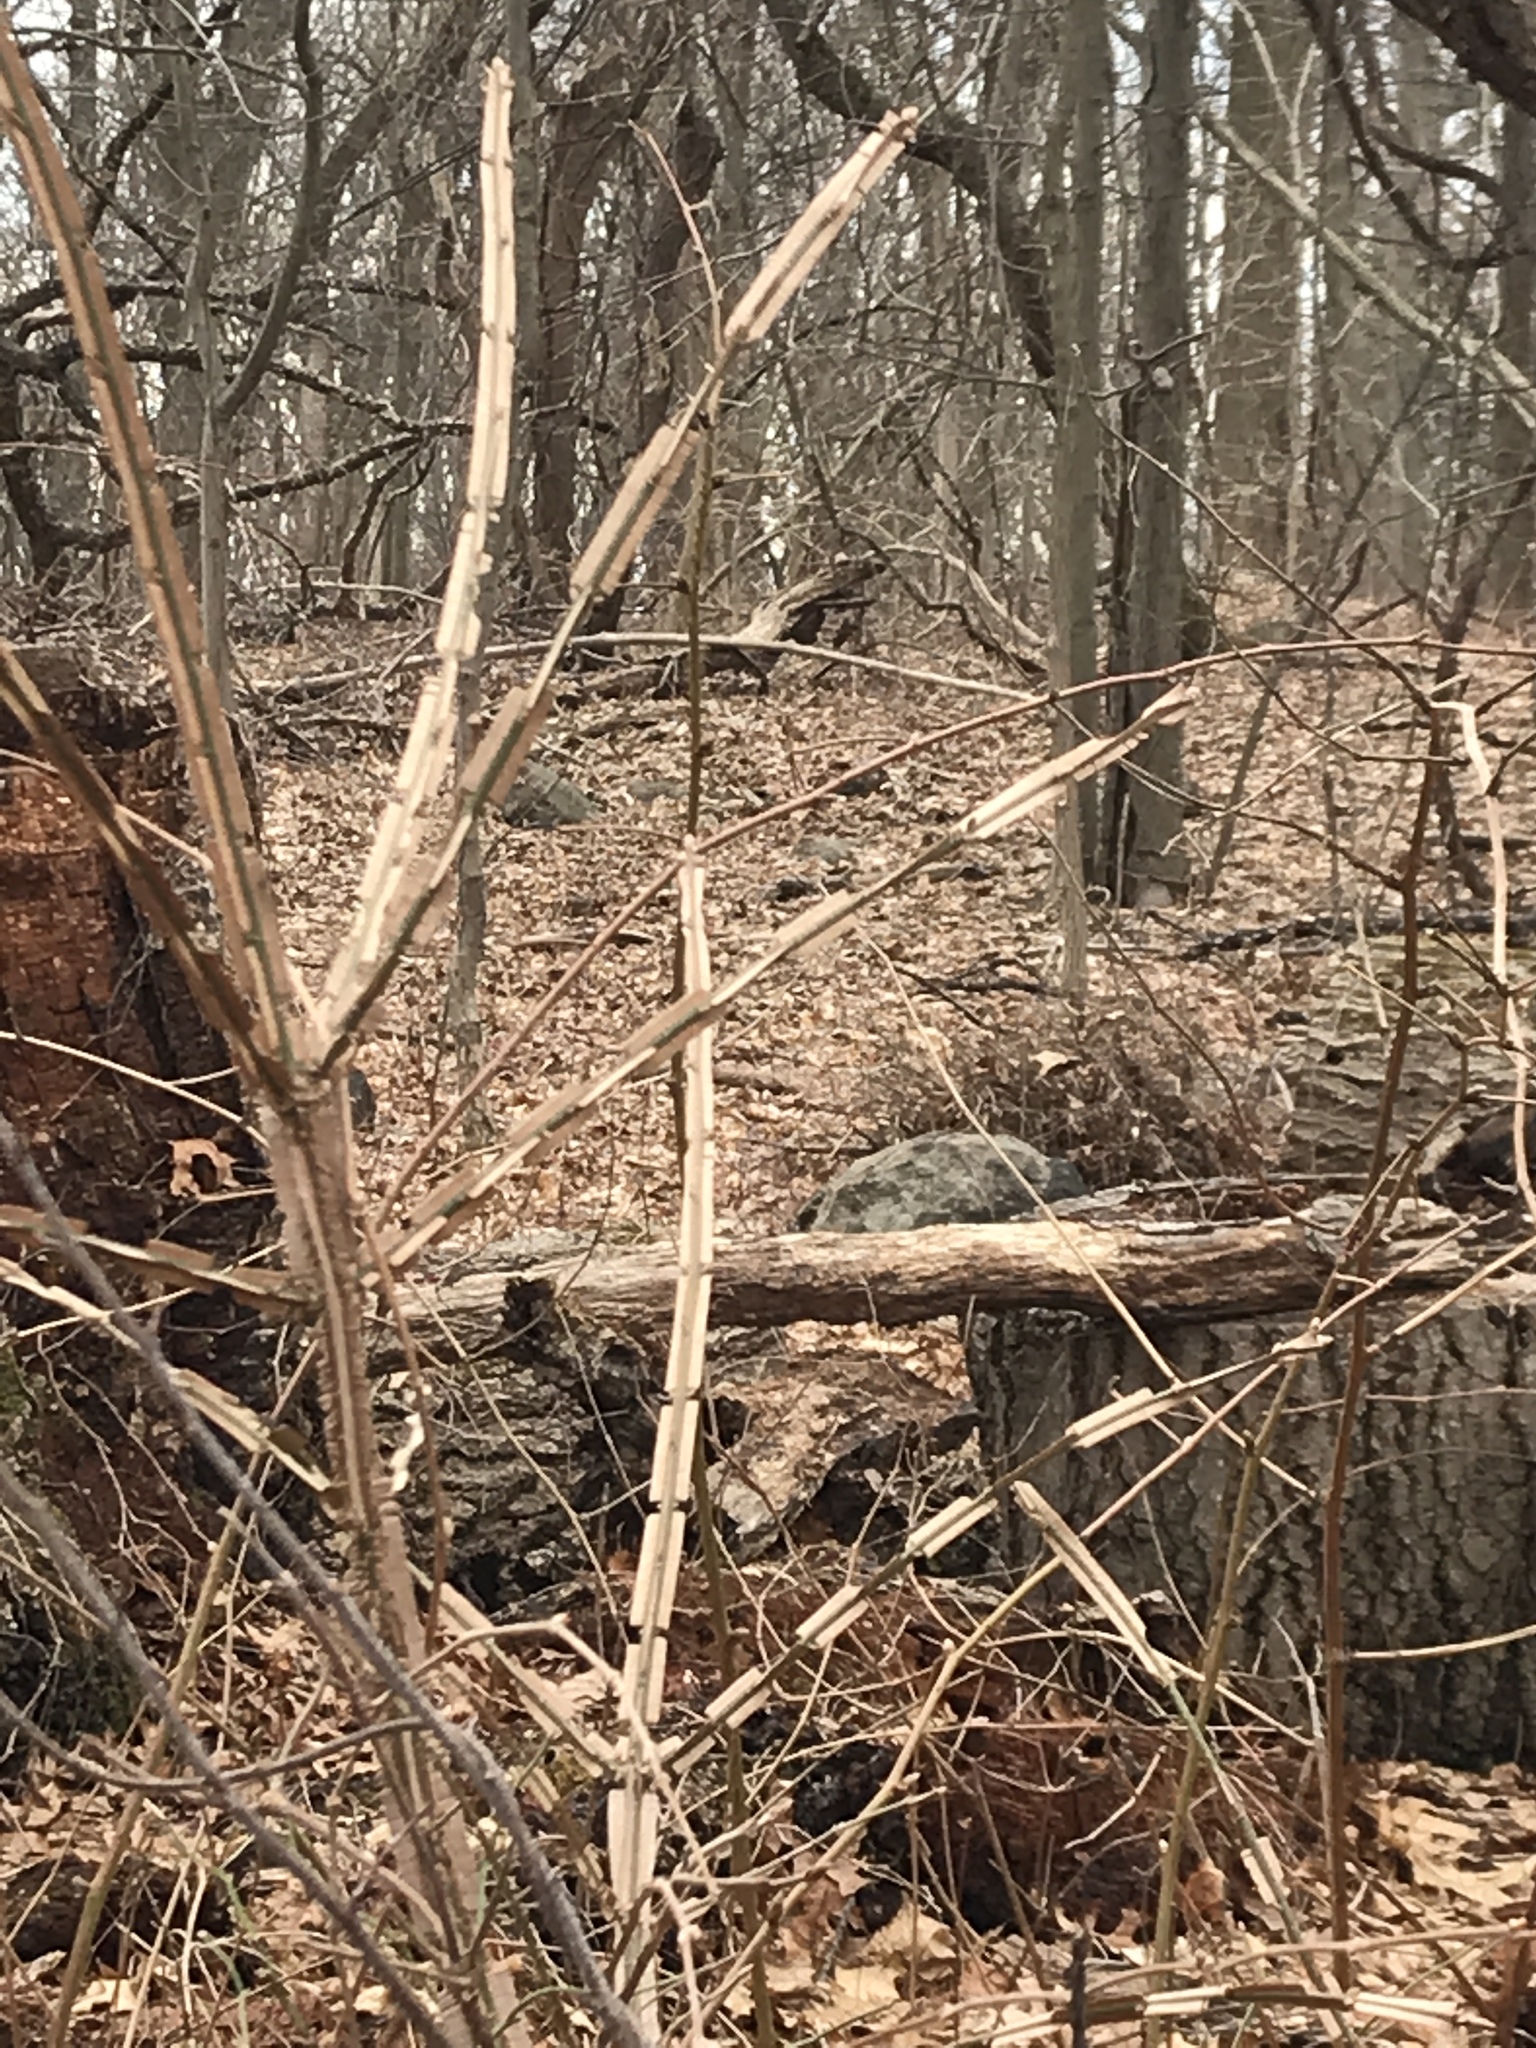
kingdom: Plantae
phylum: Tracheophyta
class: Magnoliopsida
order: Celastrales
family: Celastraceae
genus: Euonymus
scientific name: Euonymus alatus
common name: Winged euonymus
